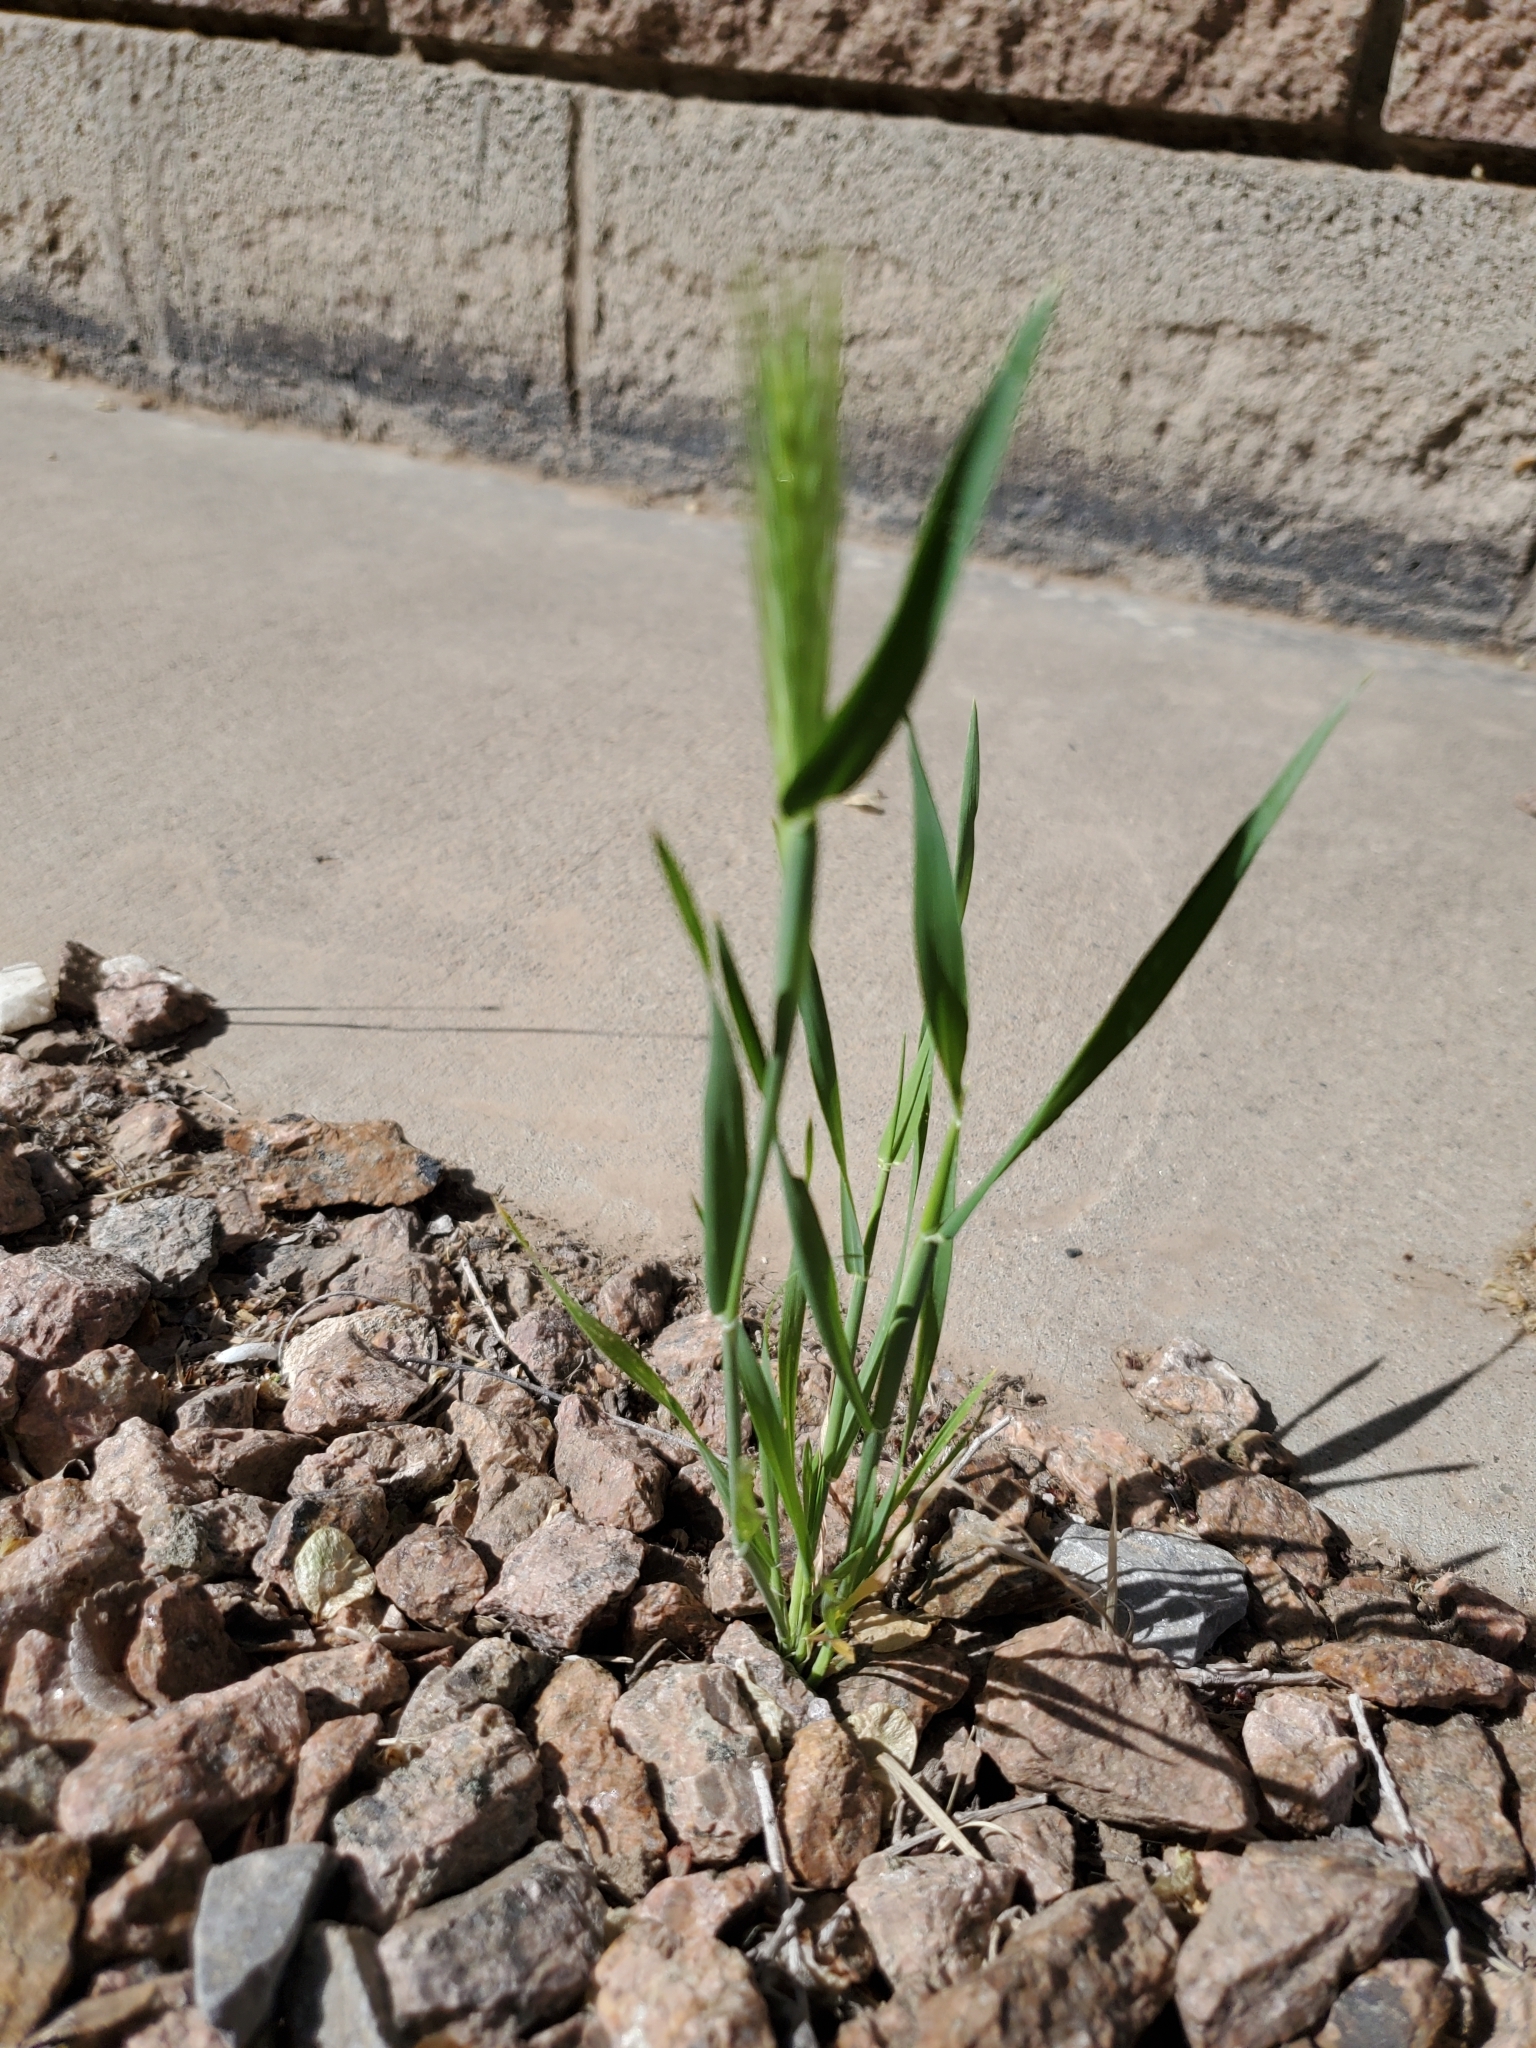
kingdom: Plantae
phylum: Tracheophyta
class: Liliopsida
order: Poales
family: Poaceae
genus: Hordeum
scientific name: Hordeum murinum
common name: Wall barley
